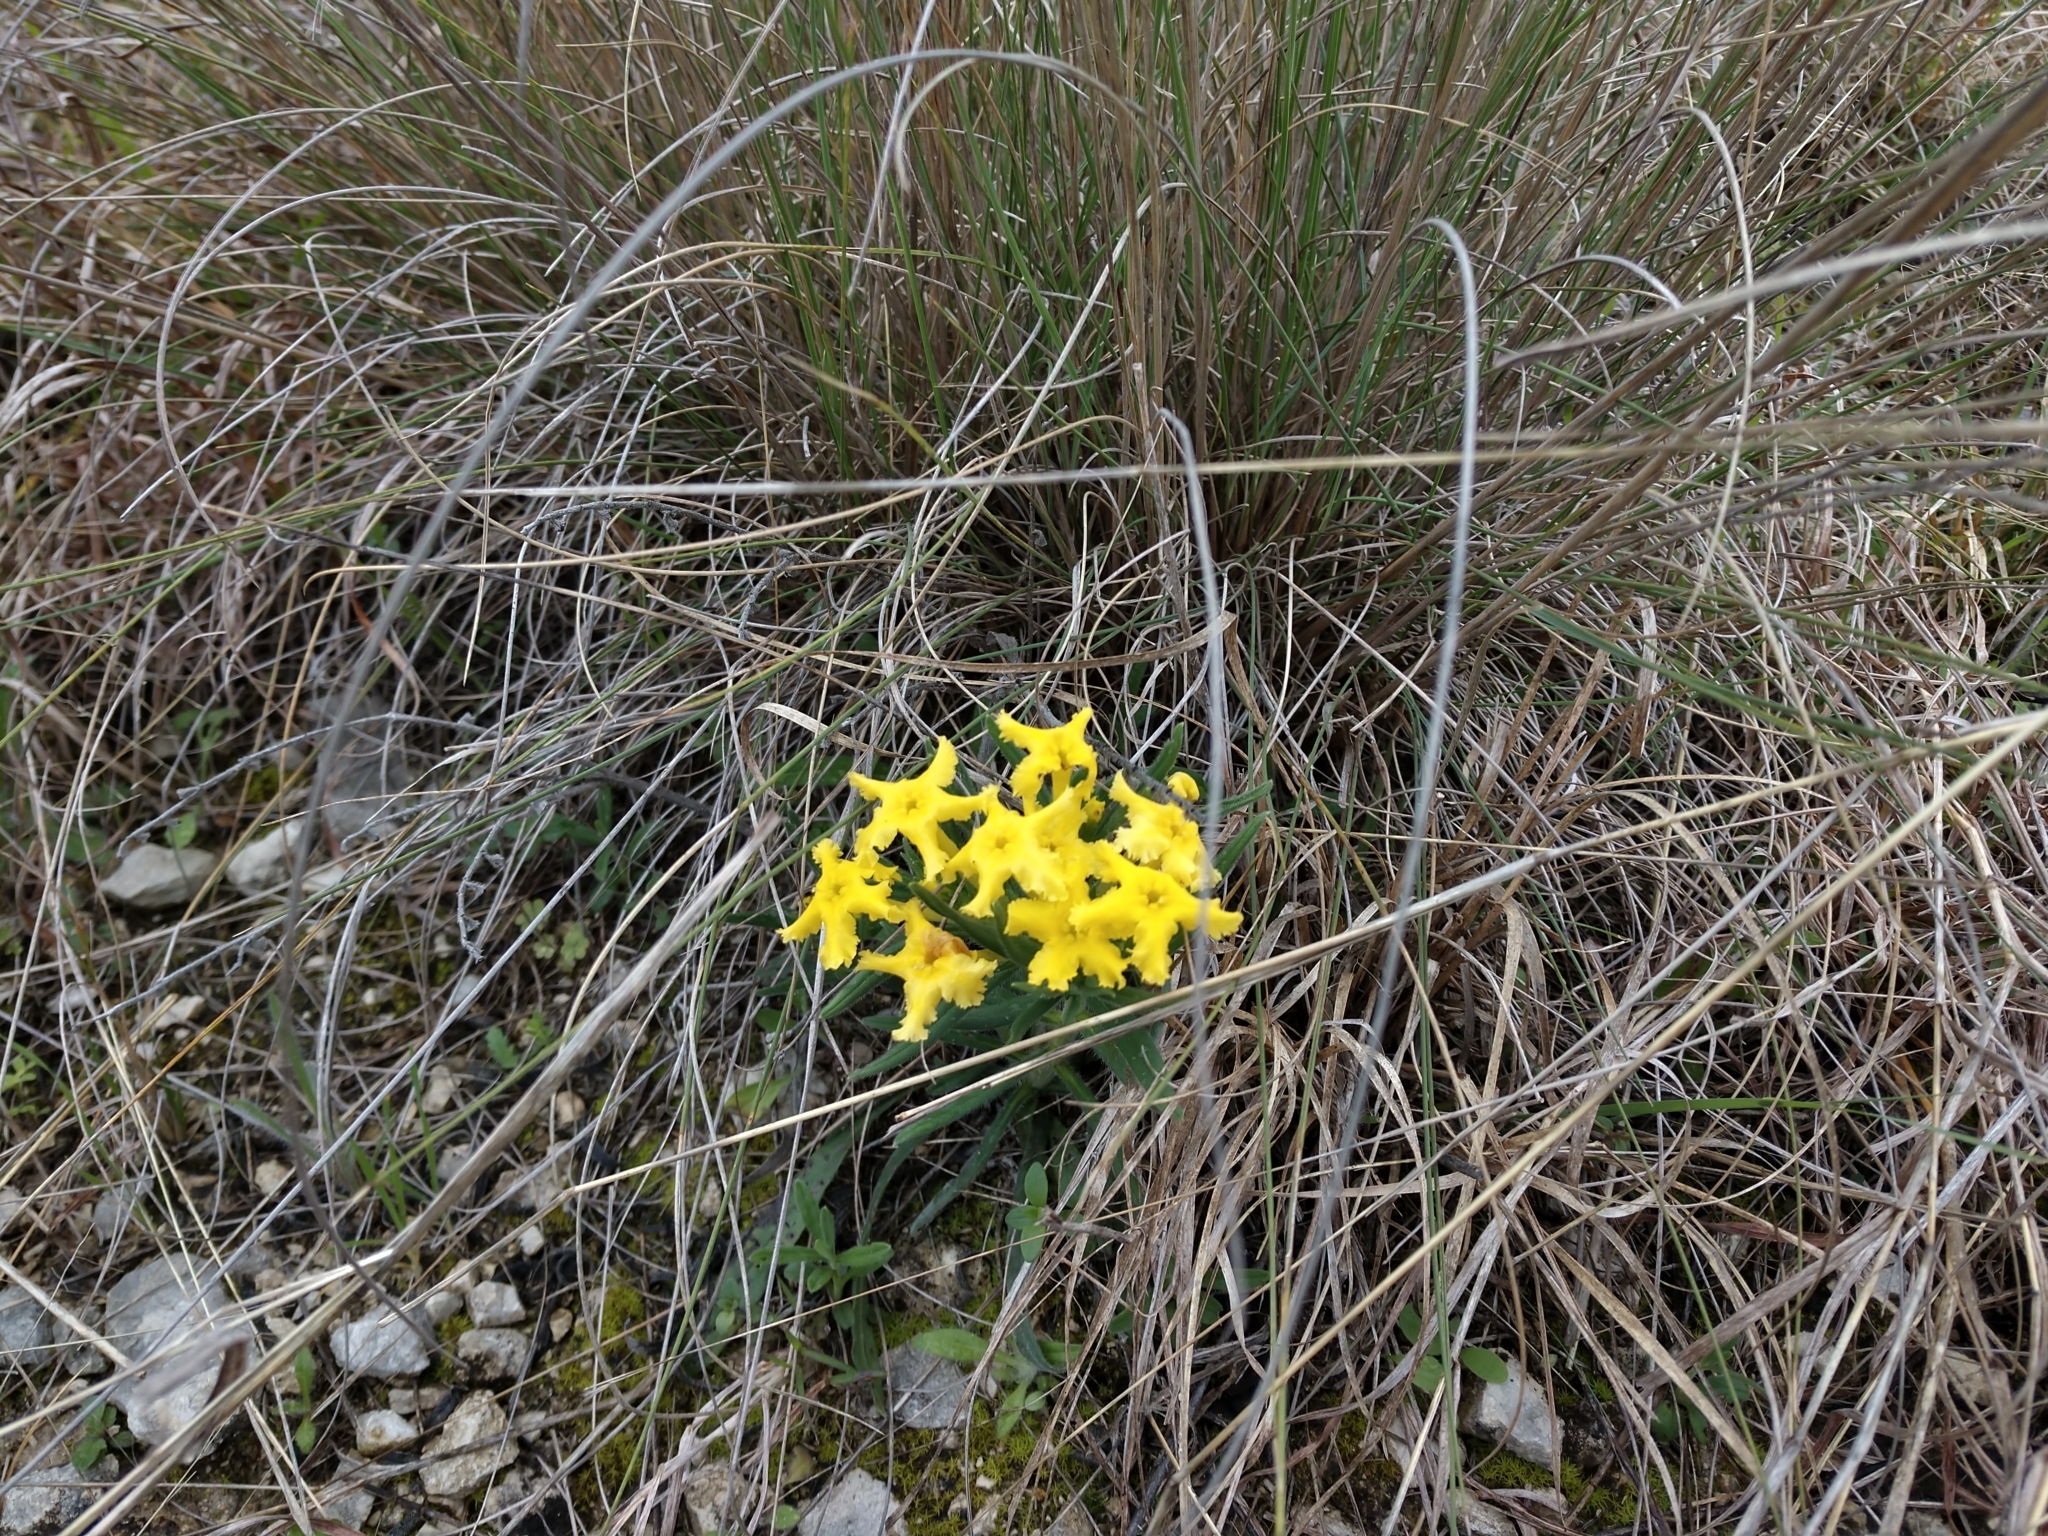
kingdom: Plantae
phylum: Tracheophyta
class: Magnoliopsida
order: Boraginales
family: Boraginaceae
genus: Lithospermum
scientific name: Lithospermum incisum
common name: Fringed gromwell
